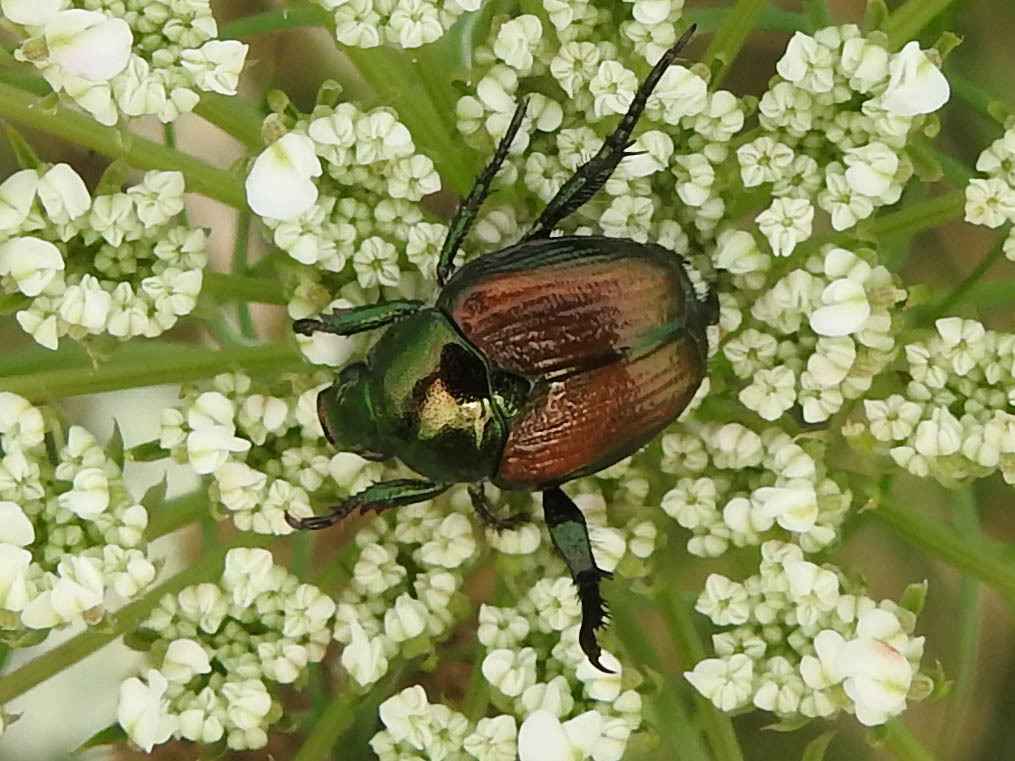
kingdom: Animalia
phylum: Arthropoda
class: Insecta
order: Coleoptera
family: Scarabaeidae
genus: Popillia
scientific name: Popillia japonica
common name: Japanese beetle
